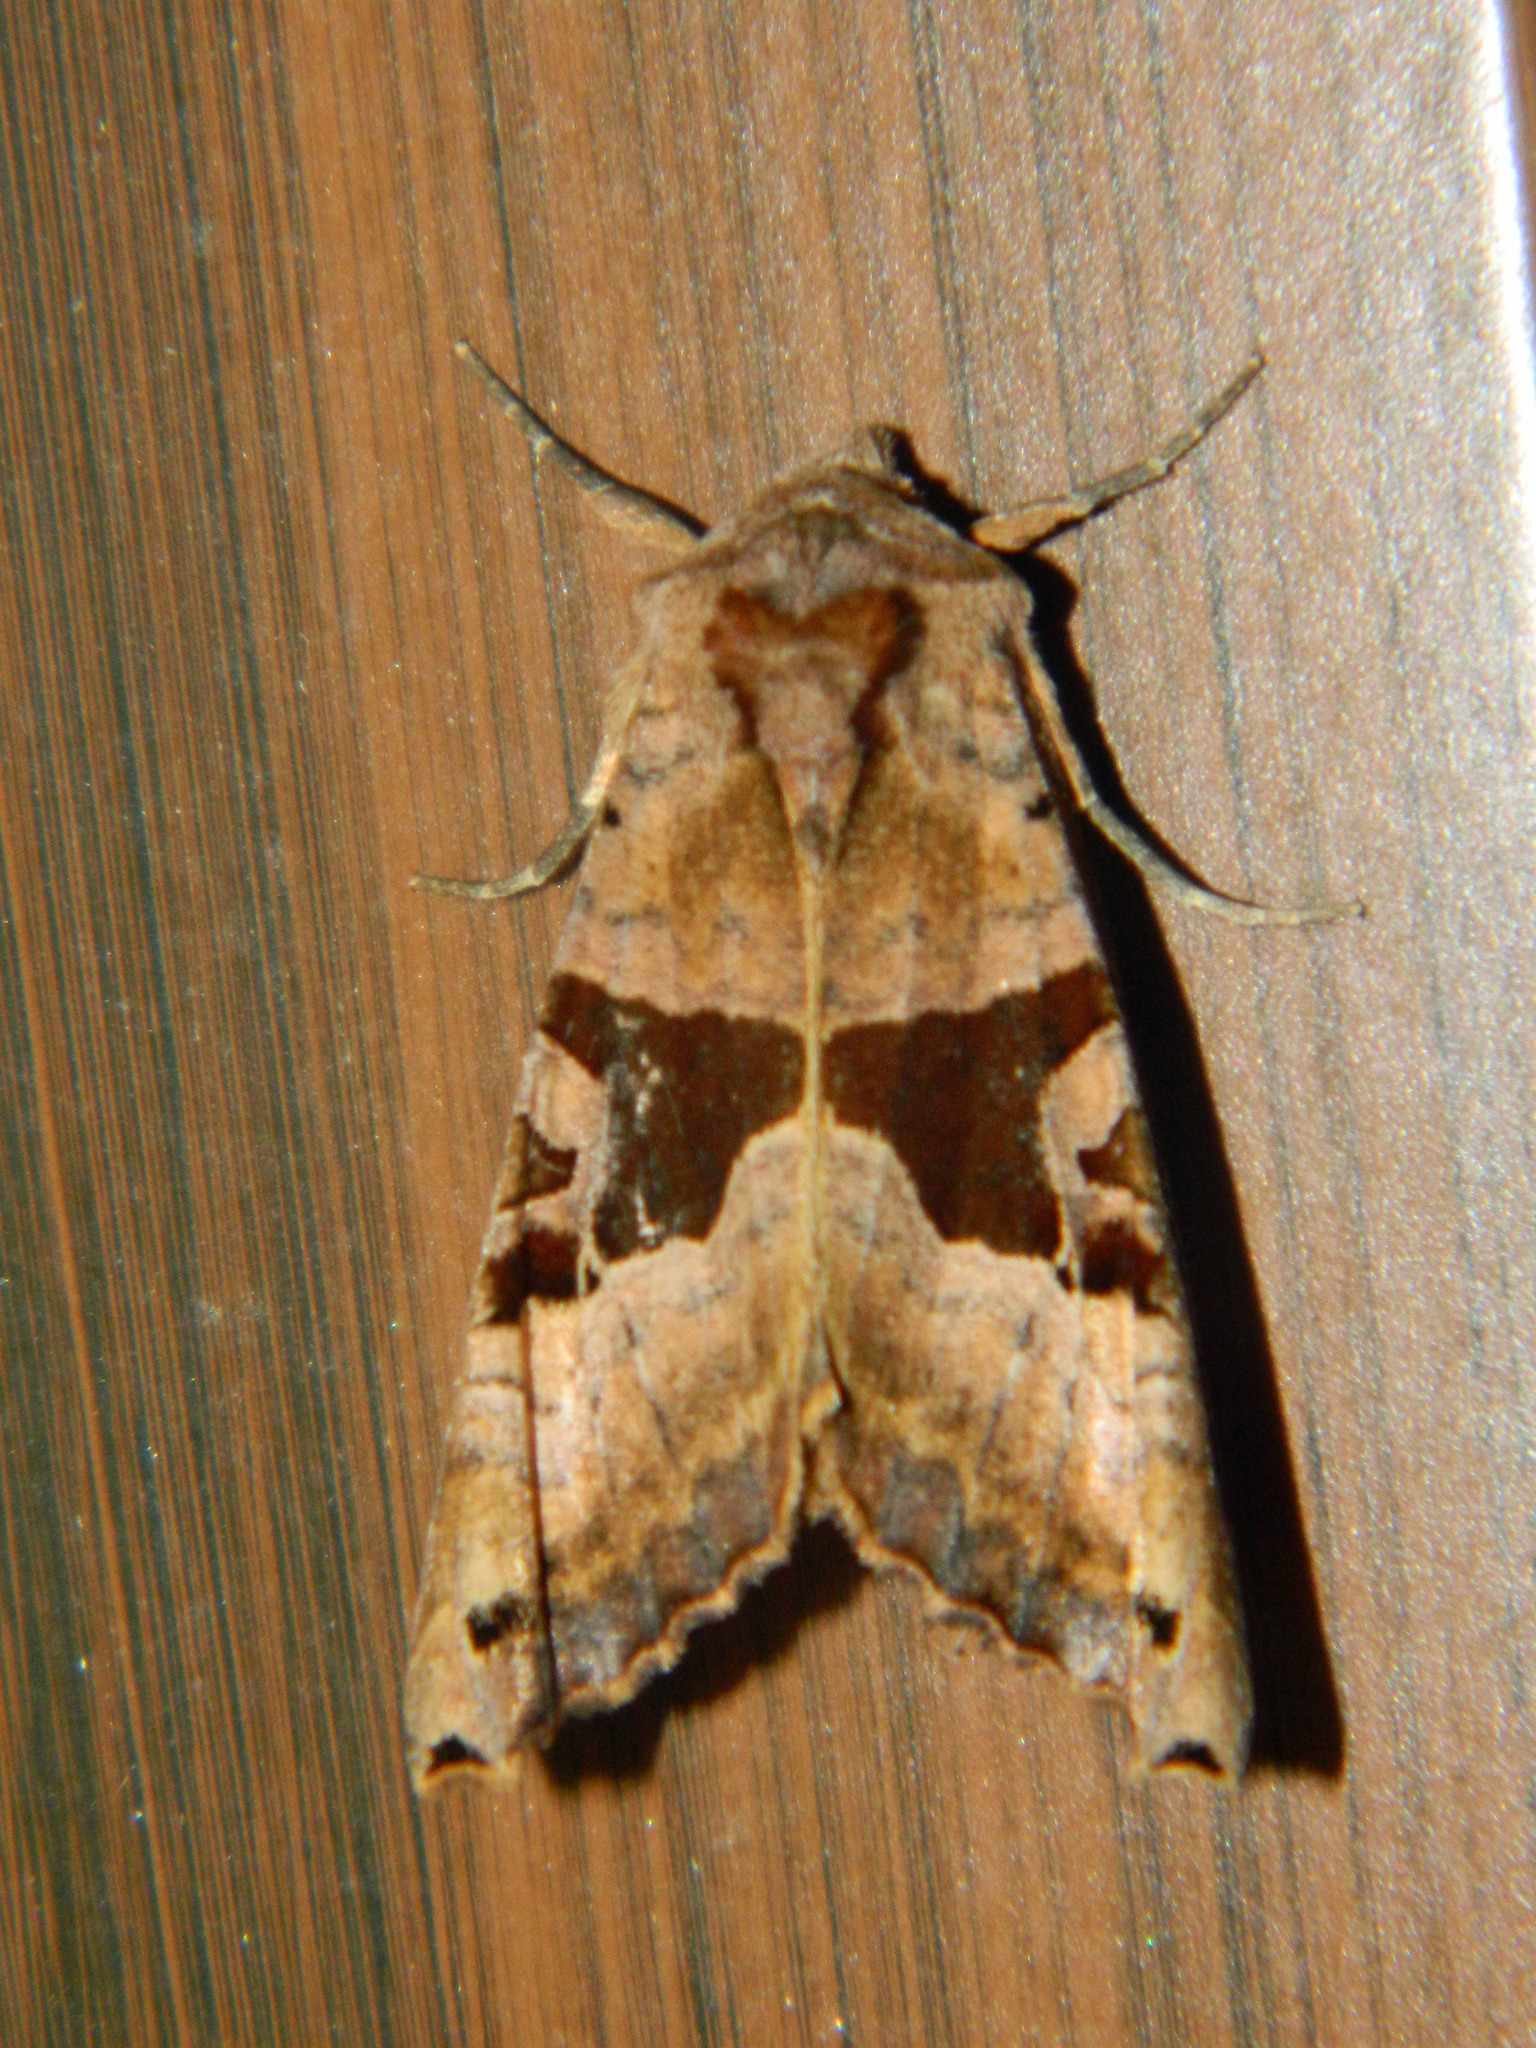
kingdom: Animalia
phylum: Arthropoda
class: Insecta
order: Lepidoptera
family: Noctuidae
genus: Phlogophora
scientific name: Phlogophora periculosa
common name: Brown angle shades
